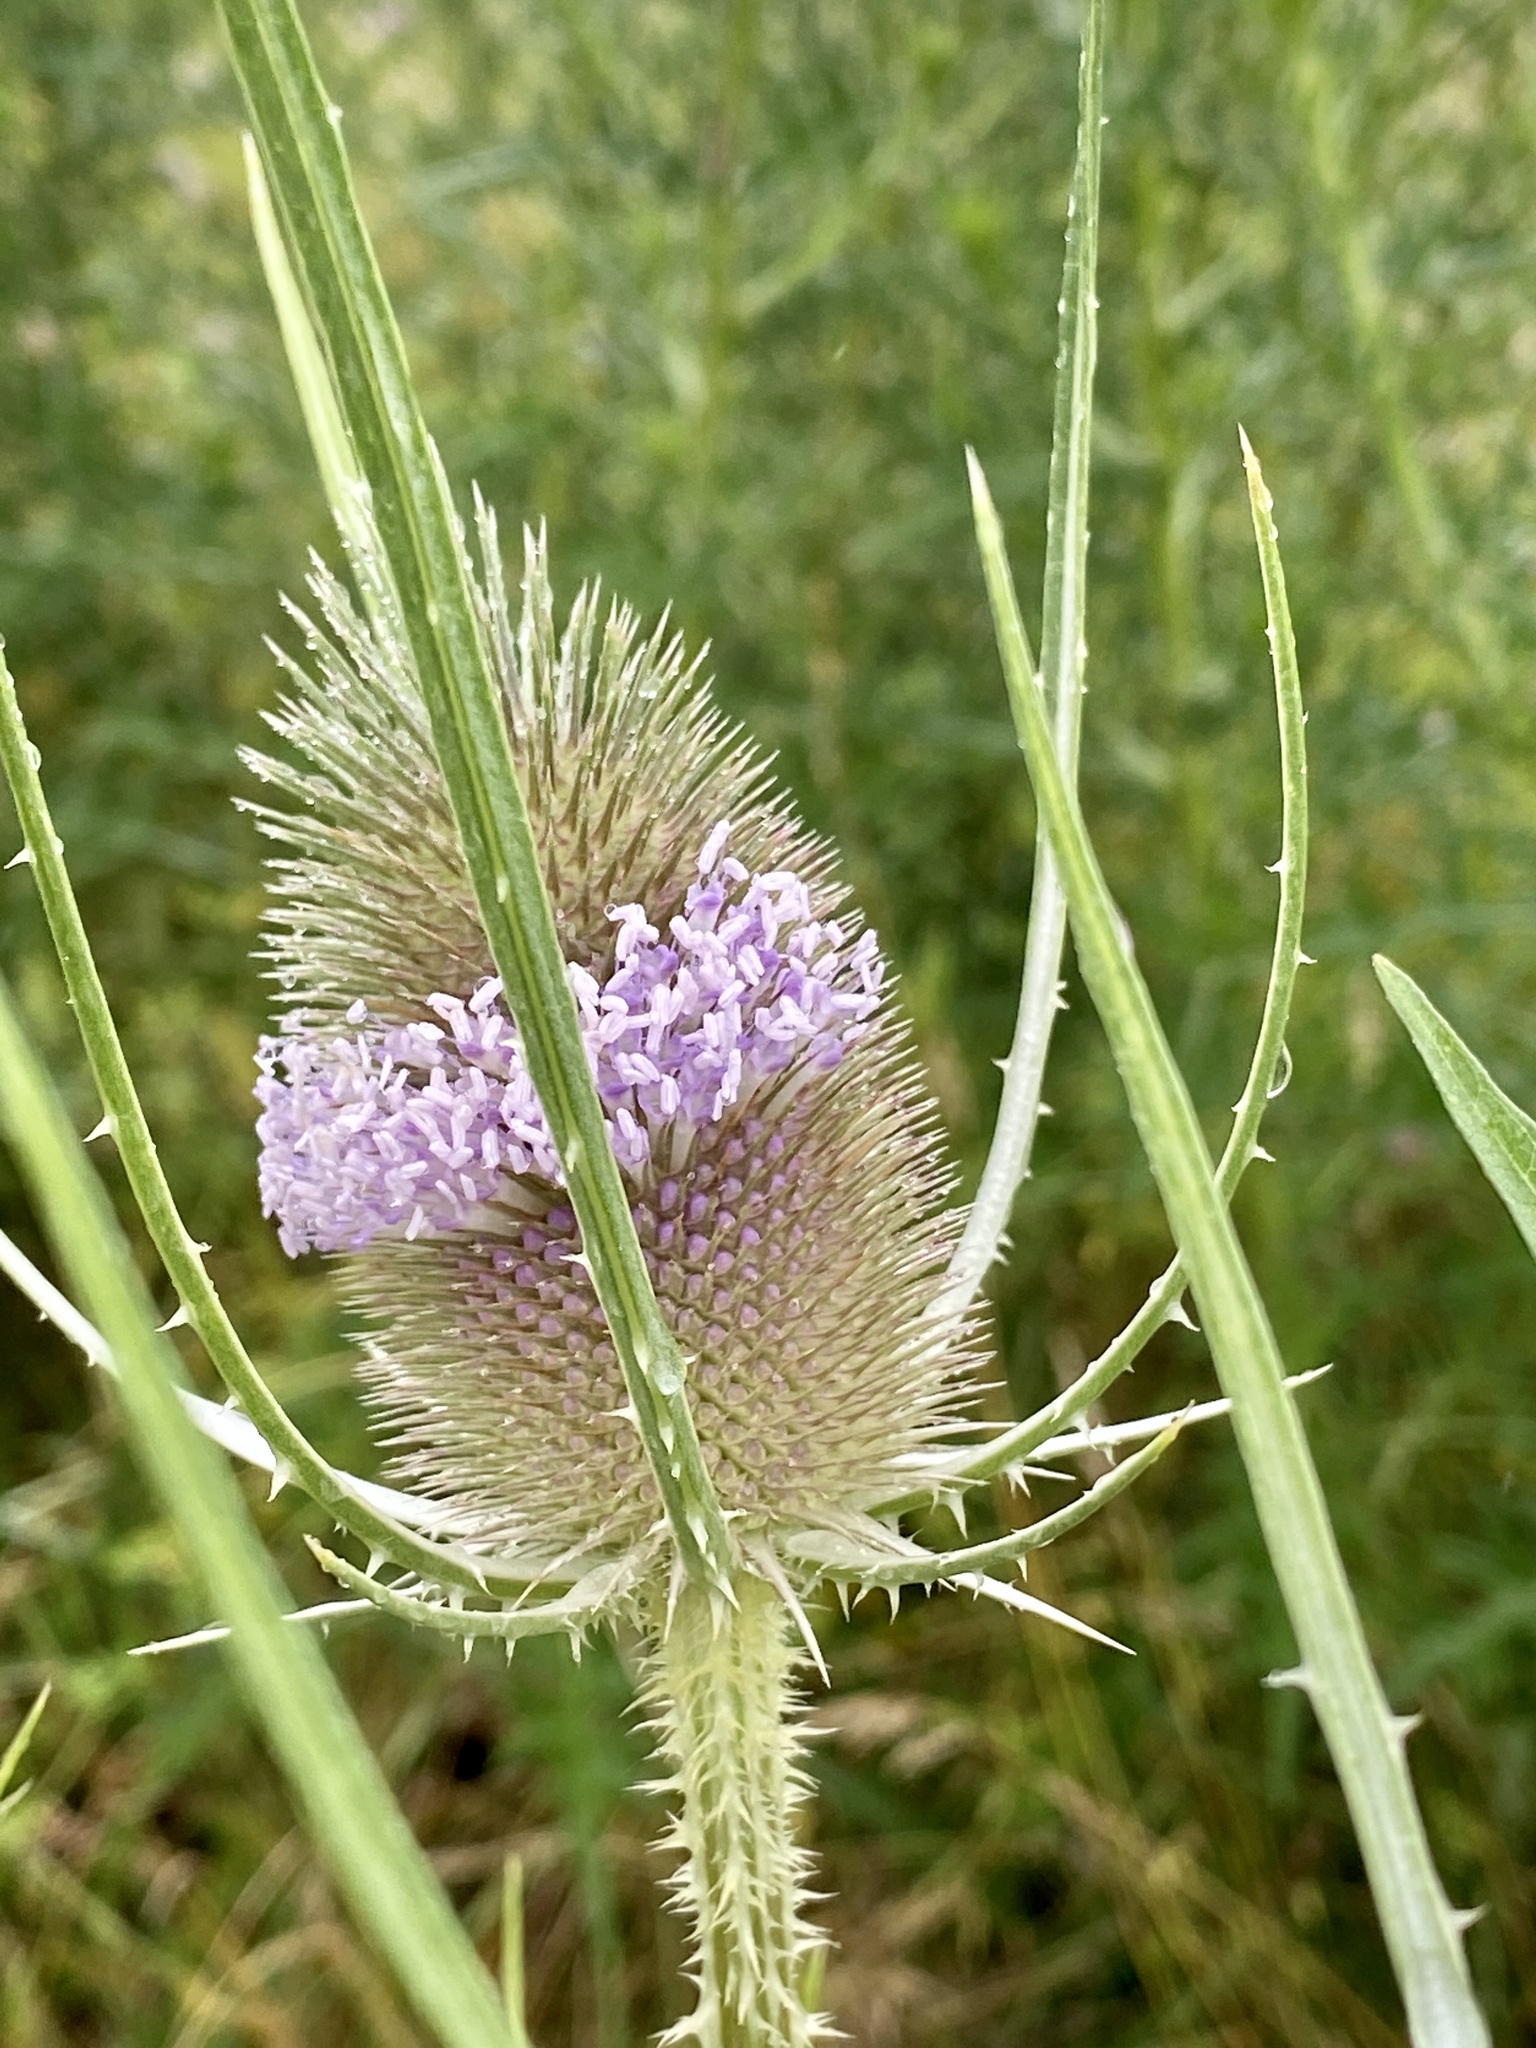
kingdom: Plantae
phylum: Tracheophyta
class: Magnoliopsida
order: Dipsacales
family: Caprifoliaceae
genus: Dipsacus
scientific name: Dipsacus fullonum
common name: Teasel
